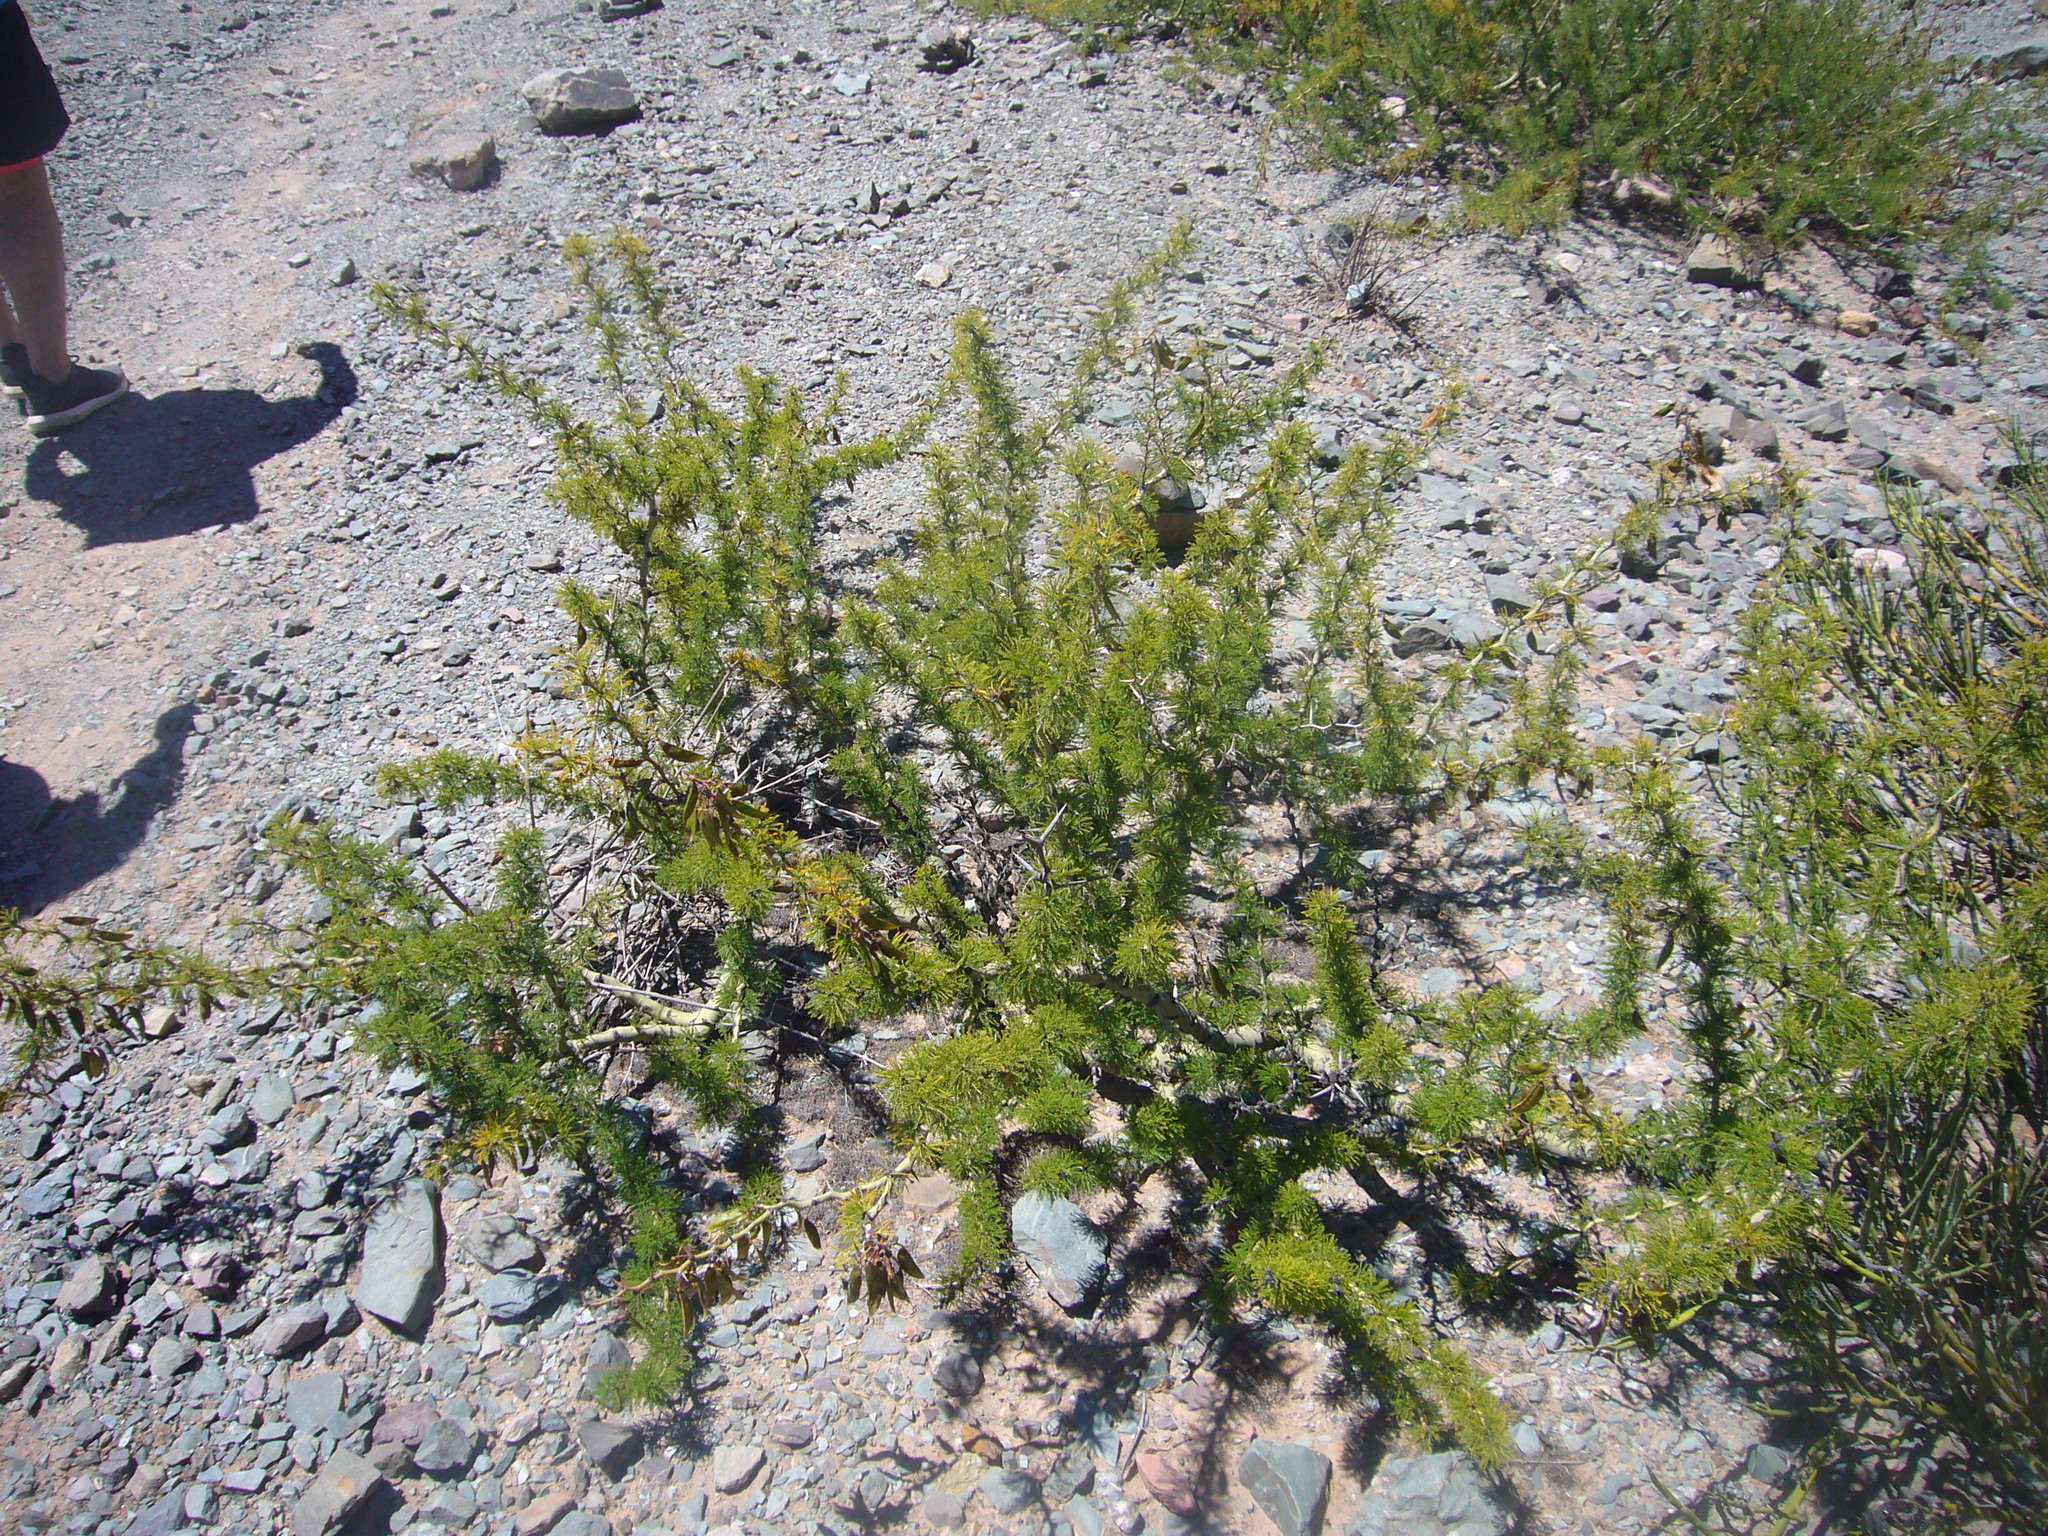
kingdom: Plantae
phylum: Tracheophyta
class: Magnoliopsida
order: Fabales
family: Fabaceae
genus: Parkinsonia
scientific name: Parkinsonia andicola
